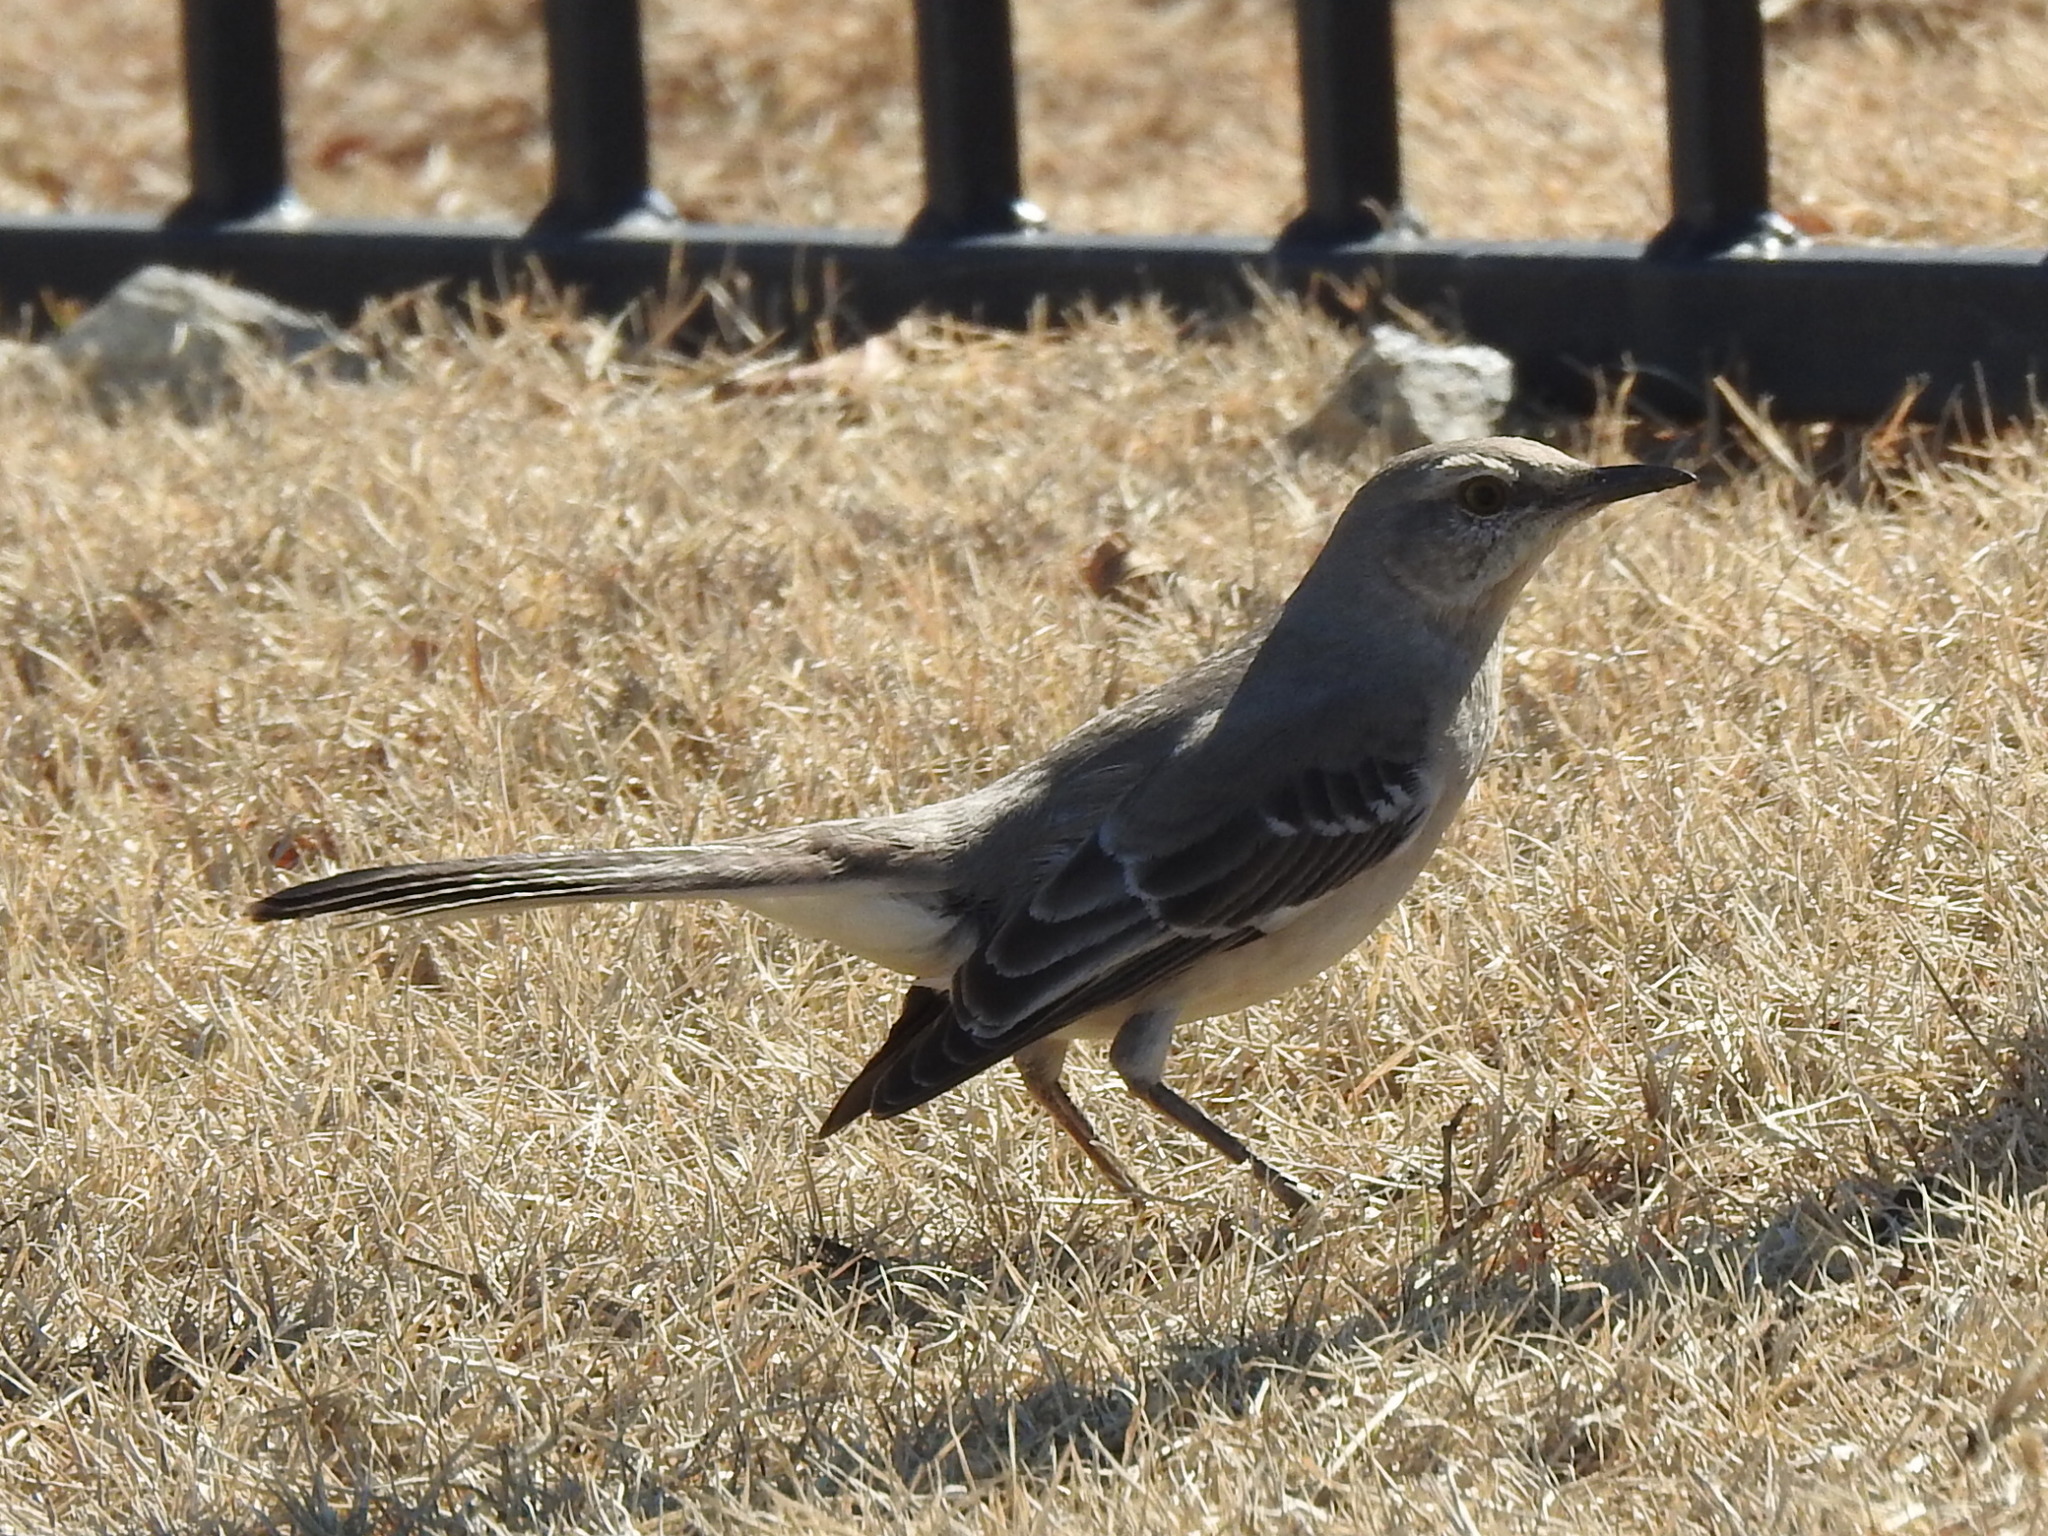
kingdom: Animalia
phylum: Chordata
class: Aves
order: Passeriformes
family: Mimidae
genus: Mimus
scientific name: Mimus polyglottos
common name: Northern mockingbird
